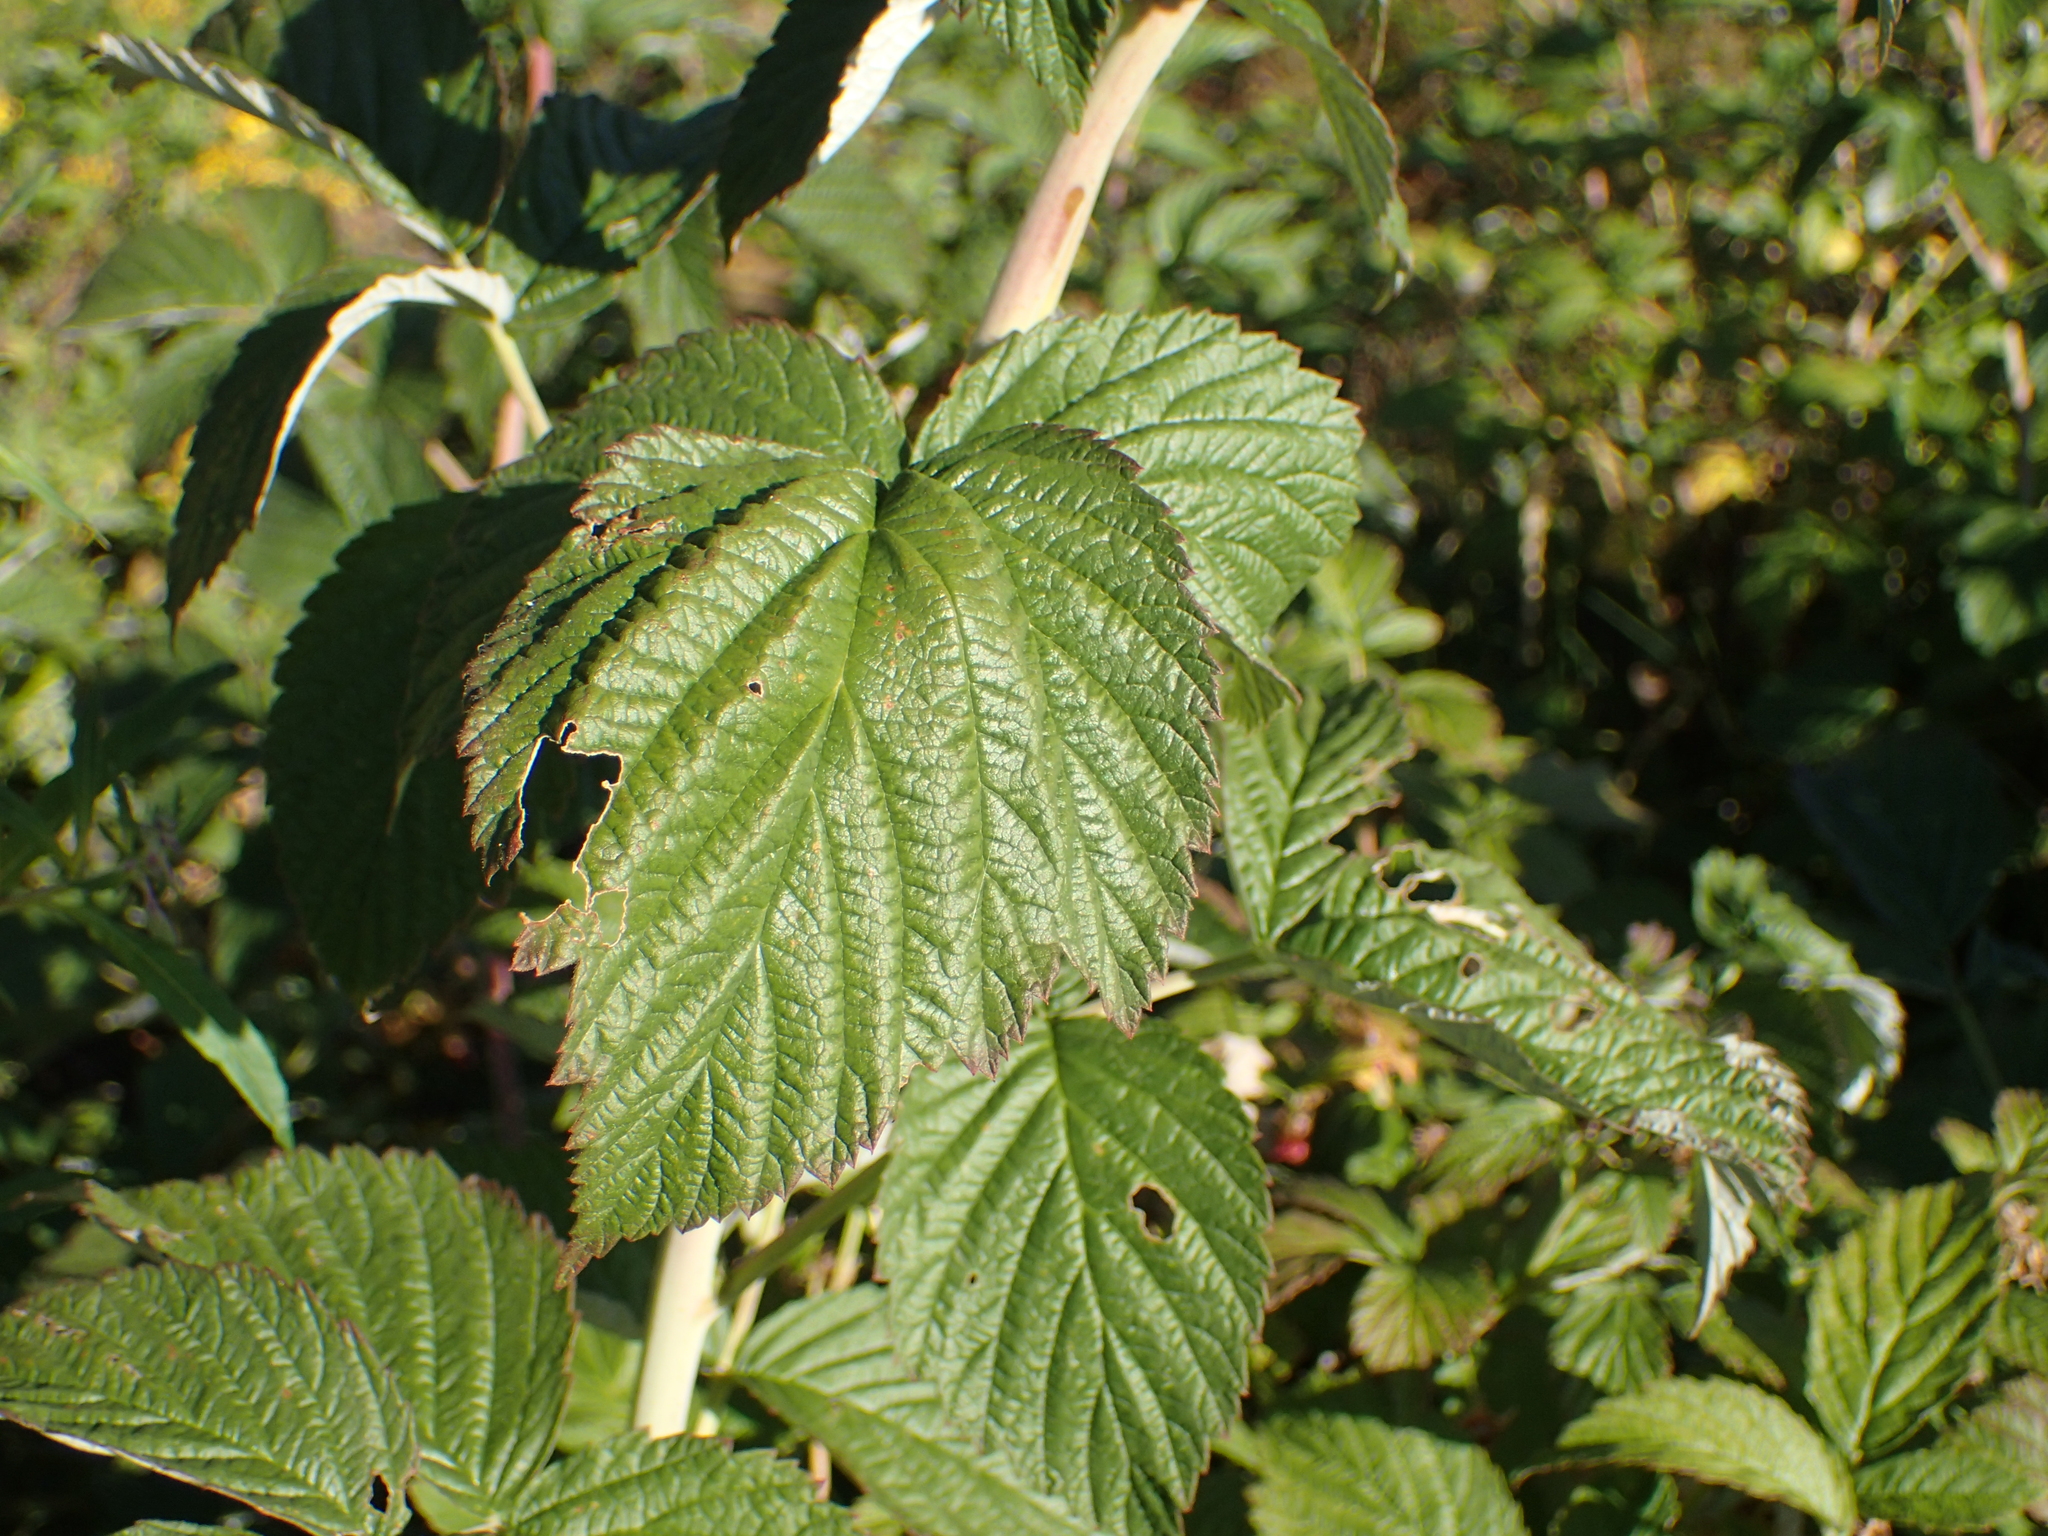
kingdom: Plantae
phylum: Tracheophyta
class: Magnoliopsida
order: Rosales
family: Rosaceae
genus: Rubus
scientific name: Rubus idaeus
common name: Raspberry
